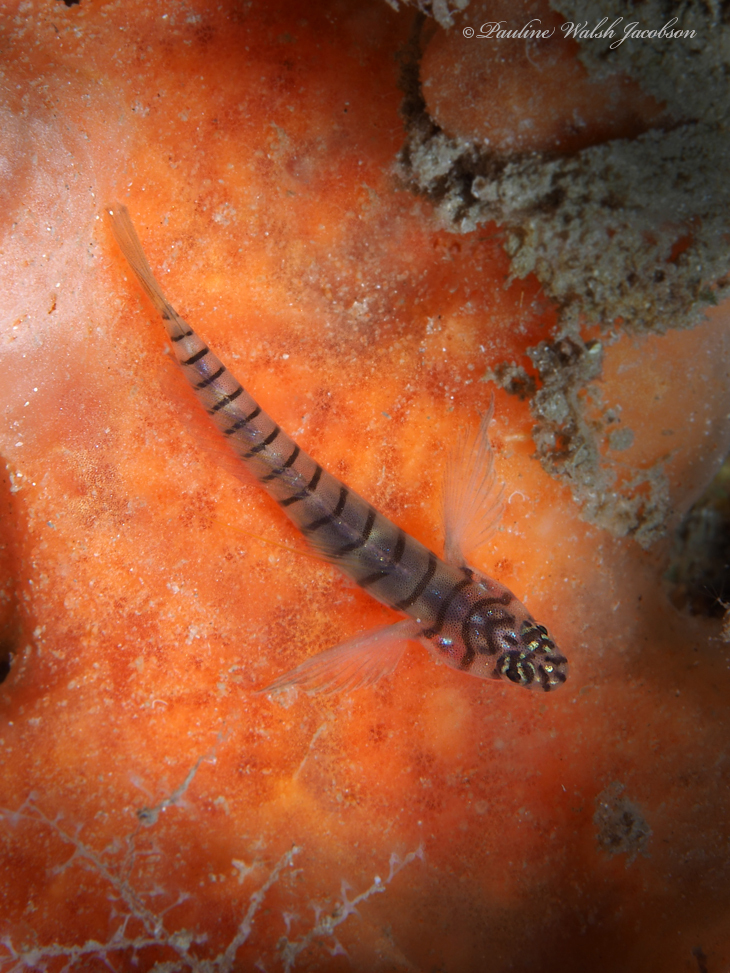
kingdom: Animalia
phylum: Chordata
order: Perciformes
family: Gobiidae
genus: Tigrigobius
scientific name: Tigrigobius macrodon
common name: Tiger goby
